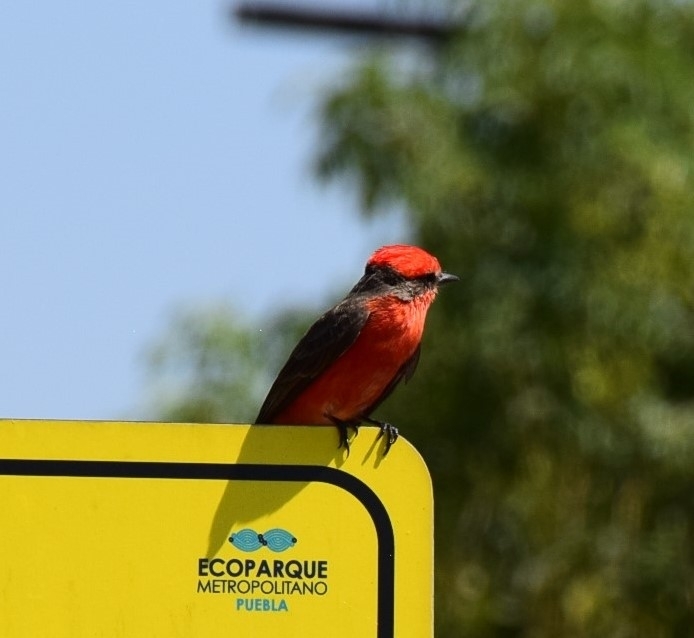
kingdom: Animalia
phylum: Chordata
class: Aves
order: Passeriformes
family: Tyrannidae
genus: Pyrocephalus
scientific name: Pyrocephalus rubinus
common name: Vermilion flycatcher
